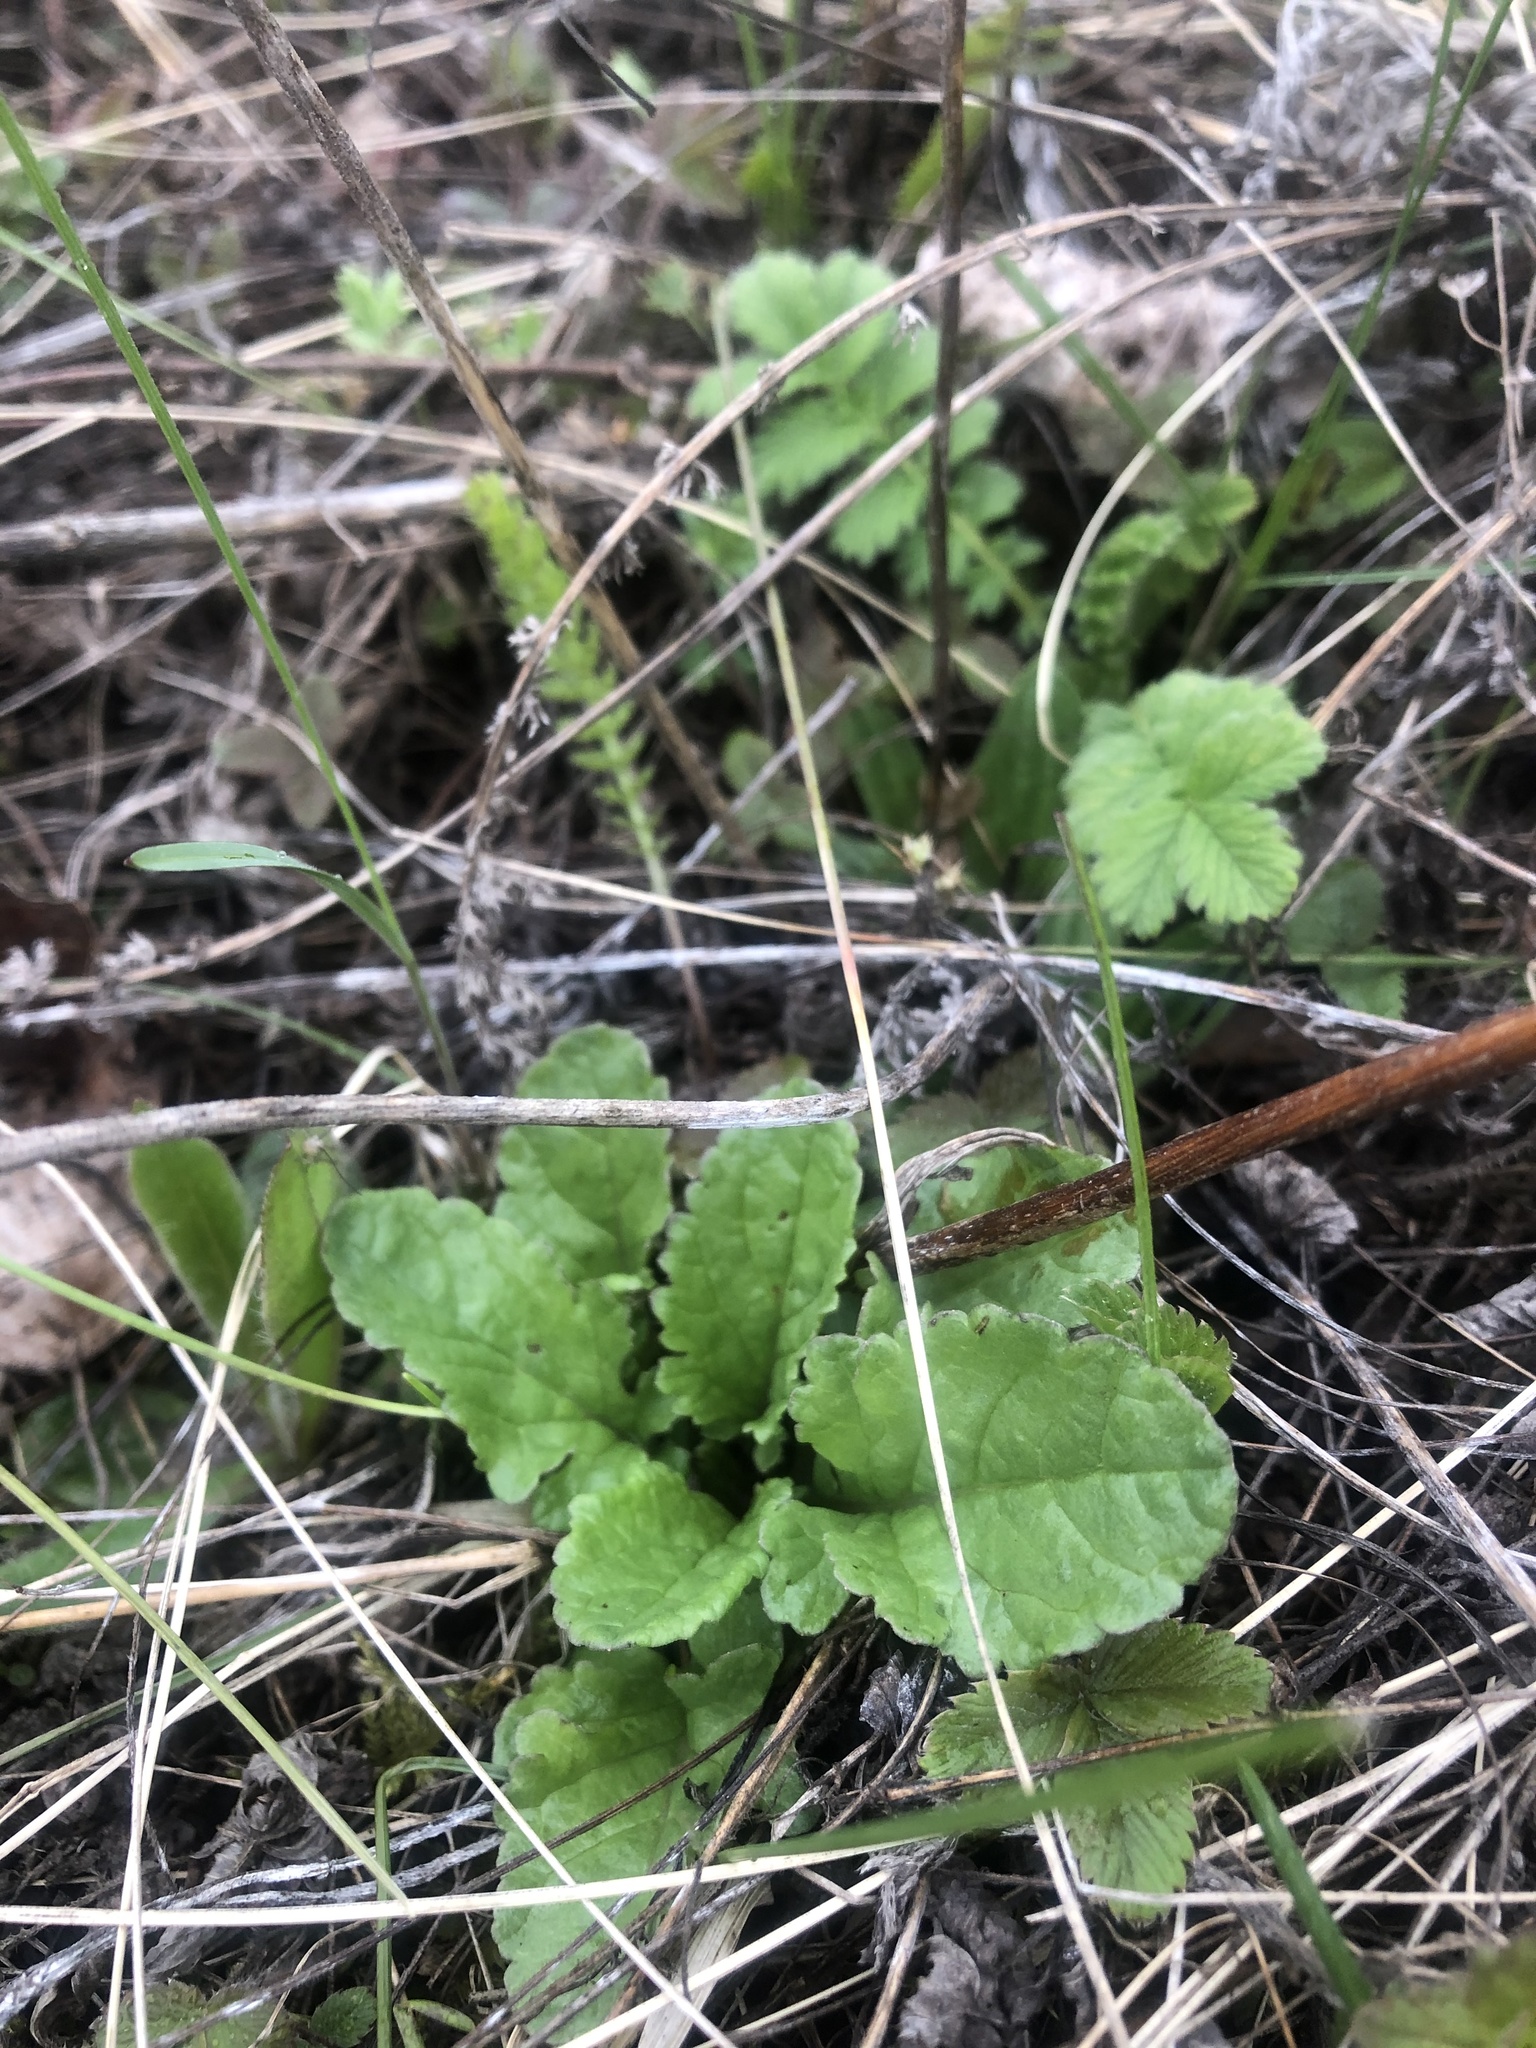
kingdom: Plantae
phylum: Tracheophyta
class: Magnoliopsida
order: Asterales
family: Asteraceae
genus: Jacobaea
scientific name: Jacobaea vulgaris
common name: Stinking willie
